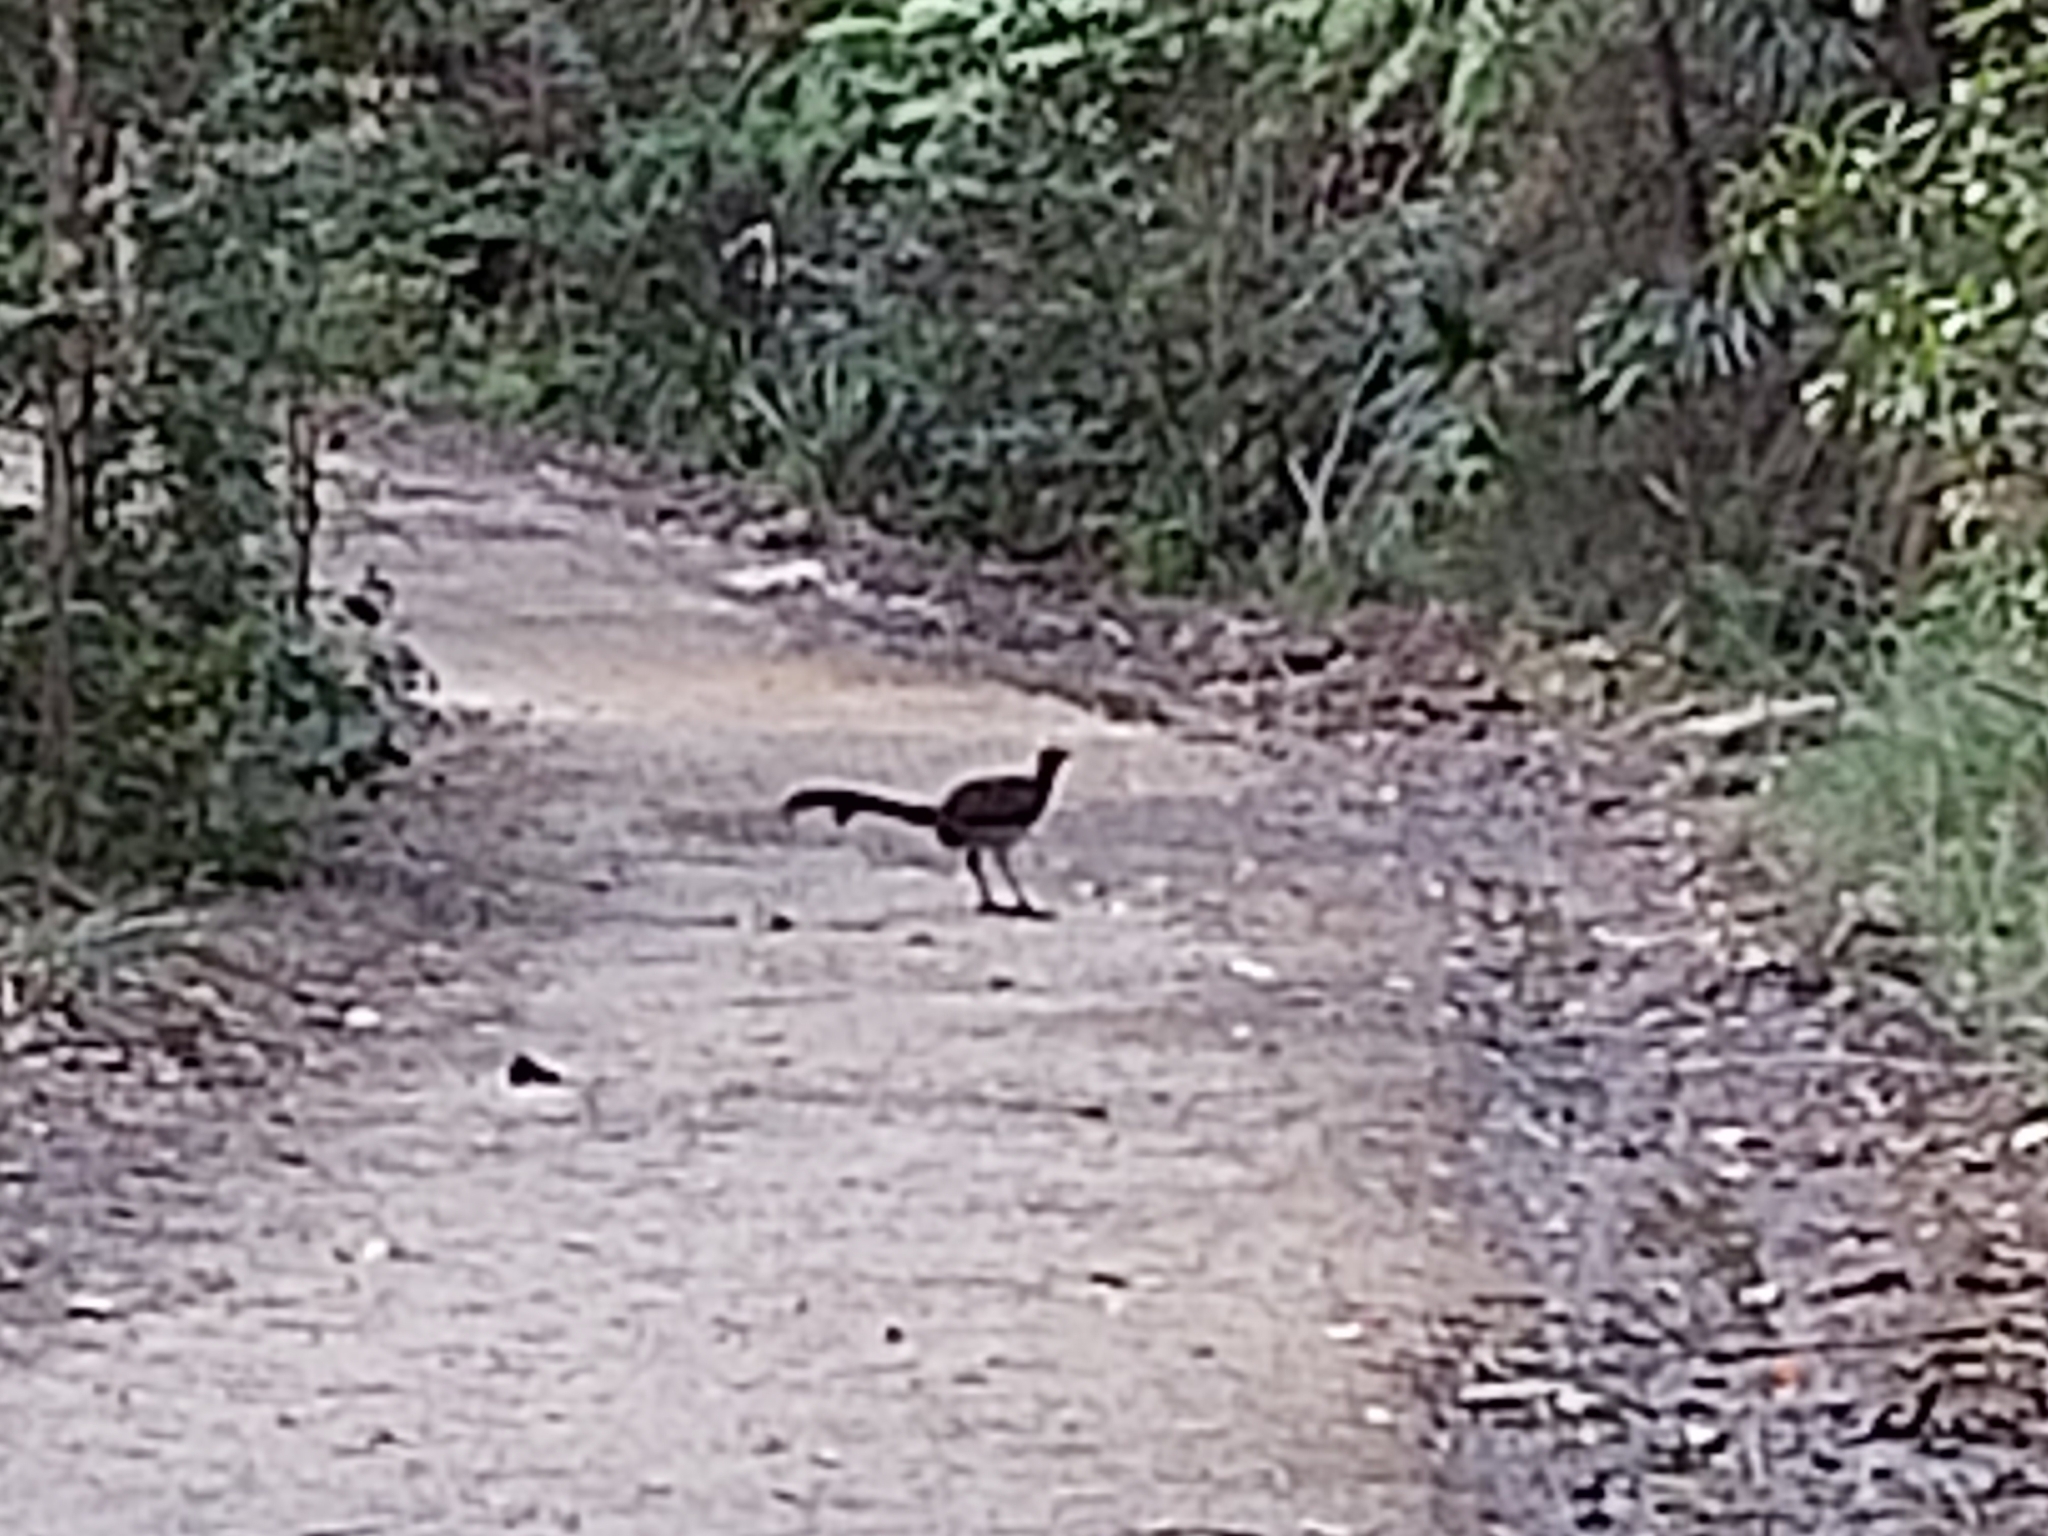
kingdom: Animalia
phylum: Chordata
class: Aves
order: Passeriformes
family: Menuridae
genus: Menura
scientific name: Menura novaehollandiae
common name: Superb lyrebird
